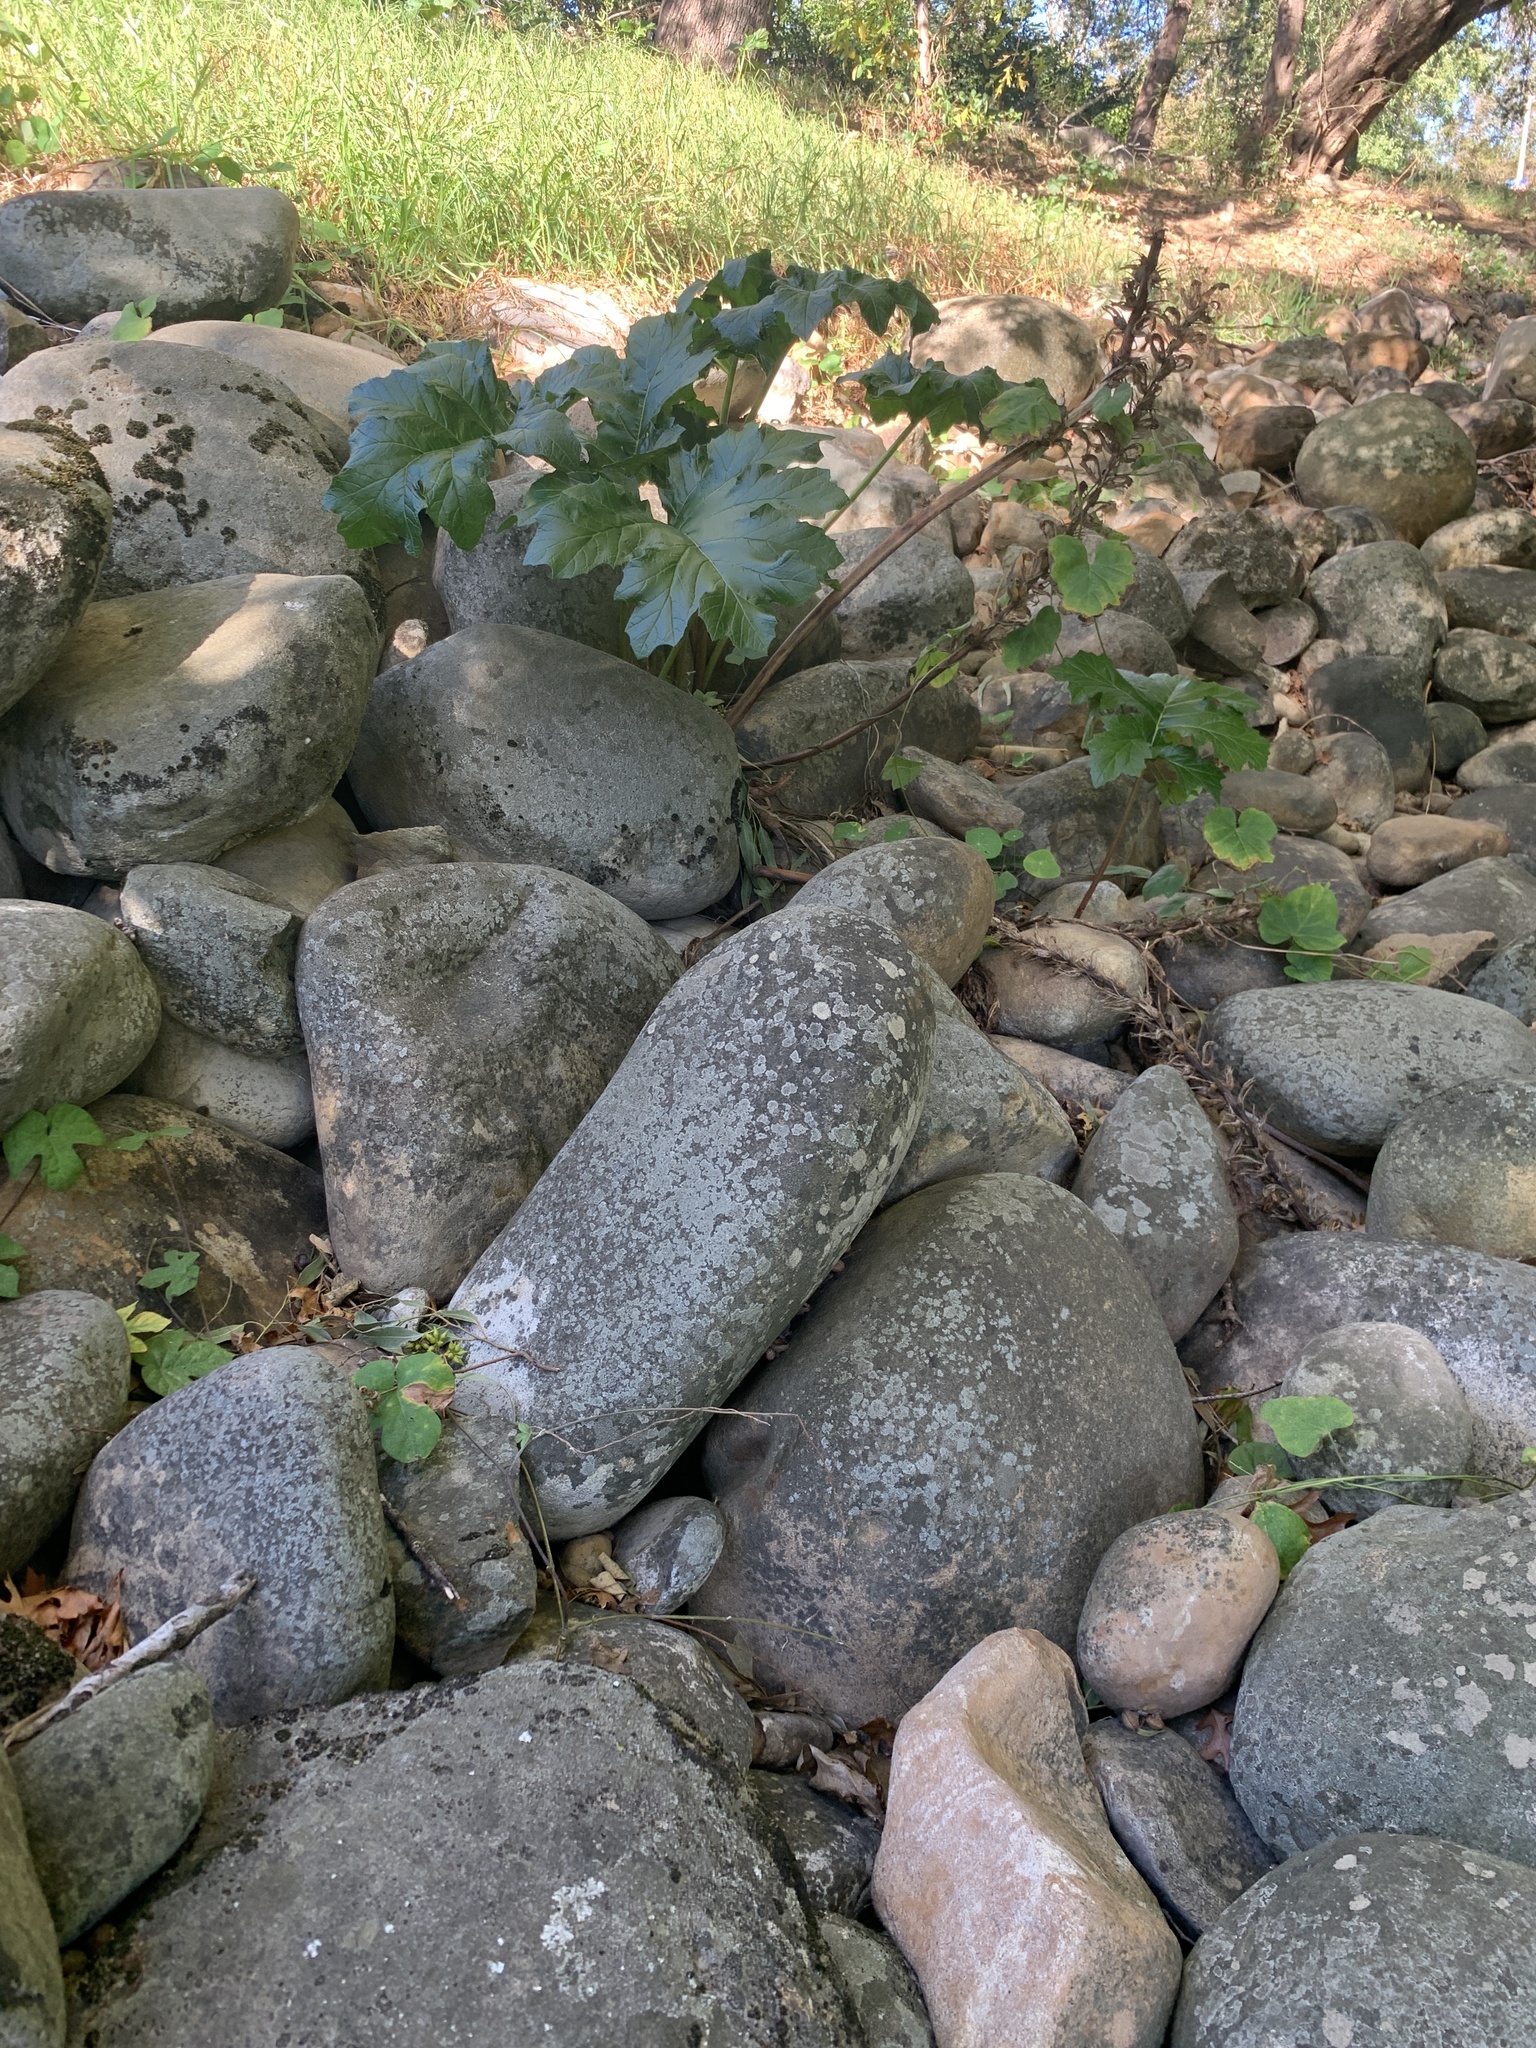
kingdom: Plantae
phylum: Tracheophyta
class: Magnoliopsida
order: Lamiales
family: Acanthaceae
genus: Acanthus
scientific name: Acanthus mollis
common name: Bear's-breech
